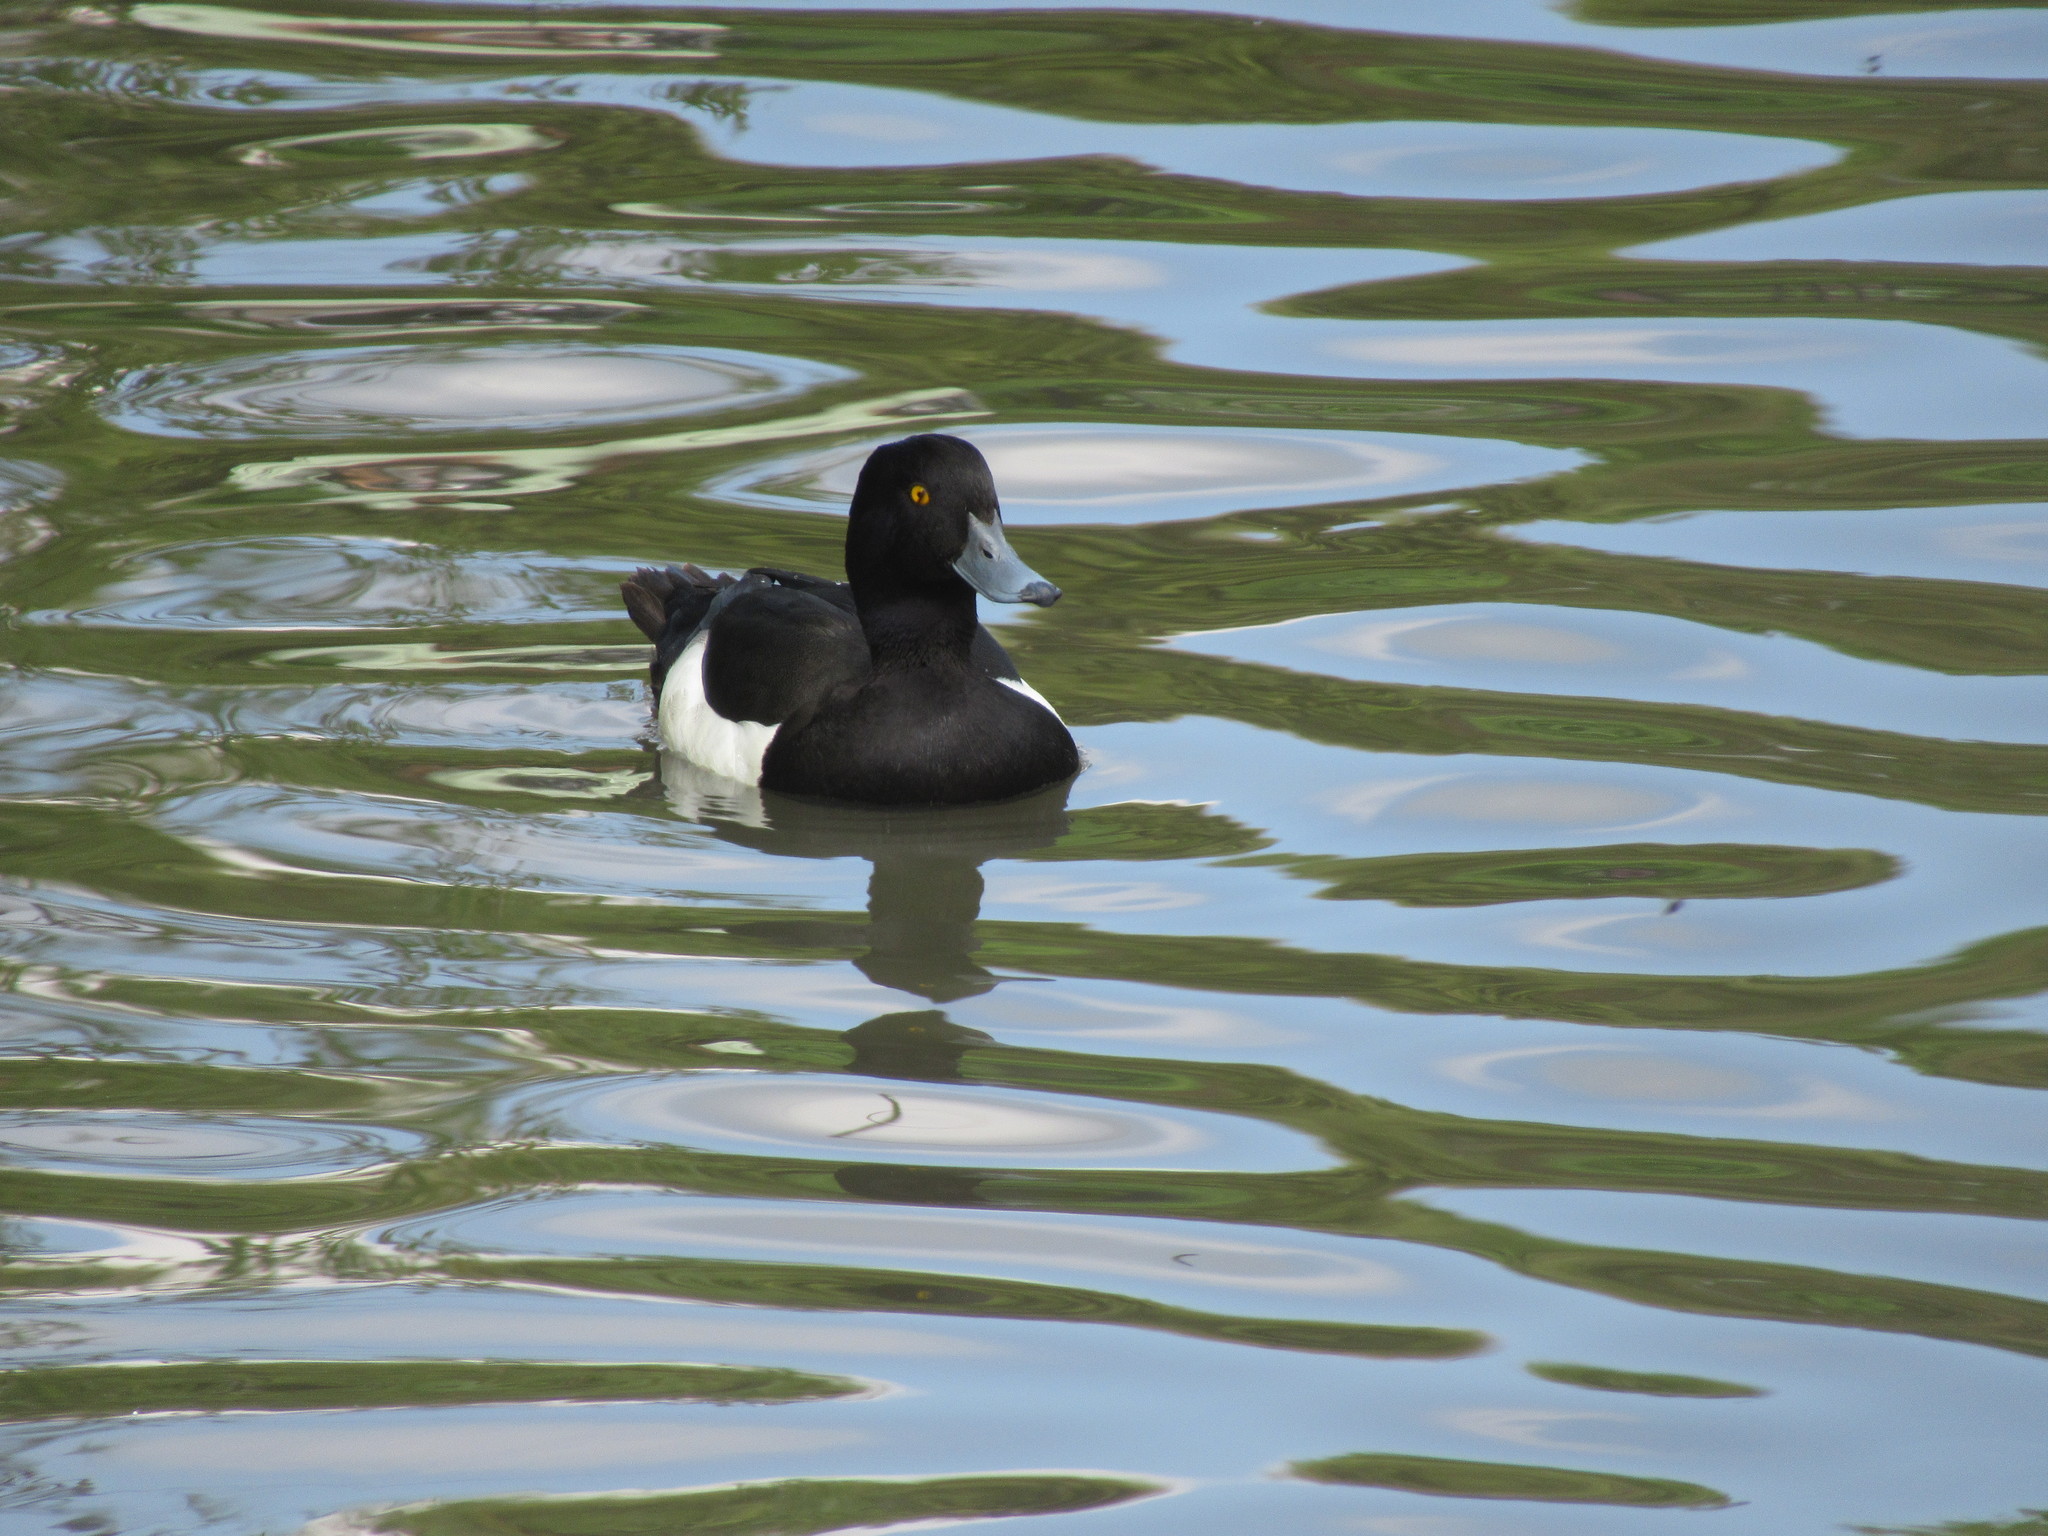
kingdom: Animalia
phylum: Chordata
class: Aves
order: Anseriformes
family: Anatidae
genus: Aythya
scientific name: Aythya fuligula
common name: Tufted duck
